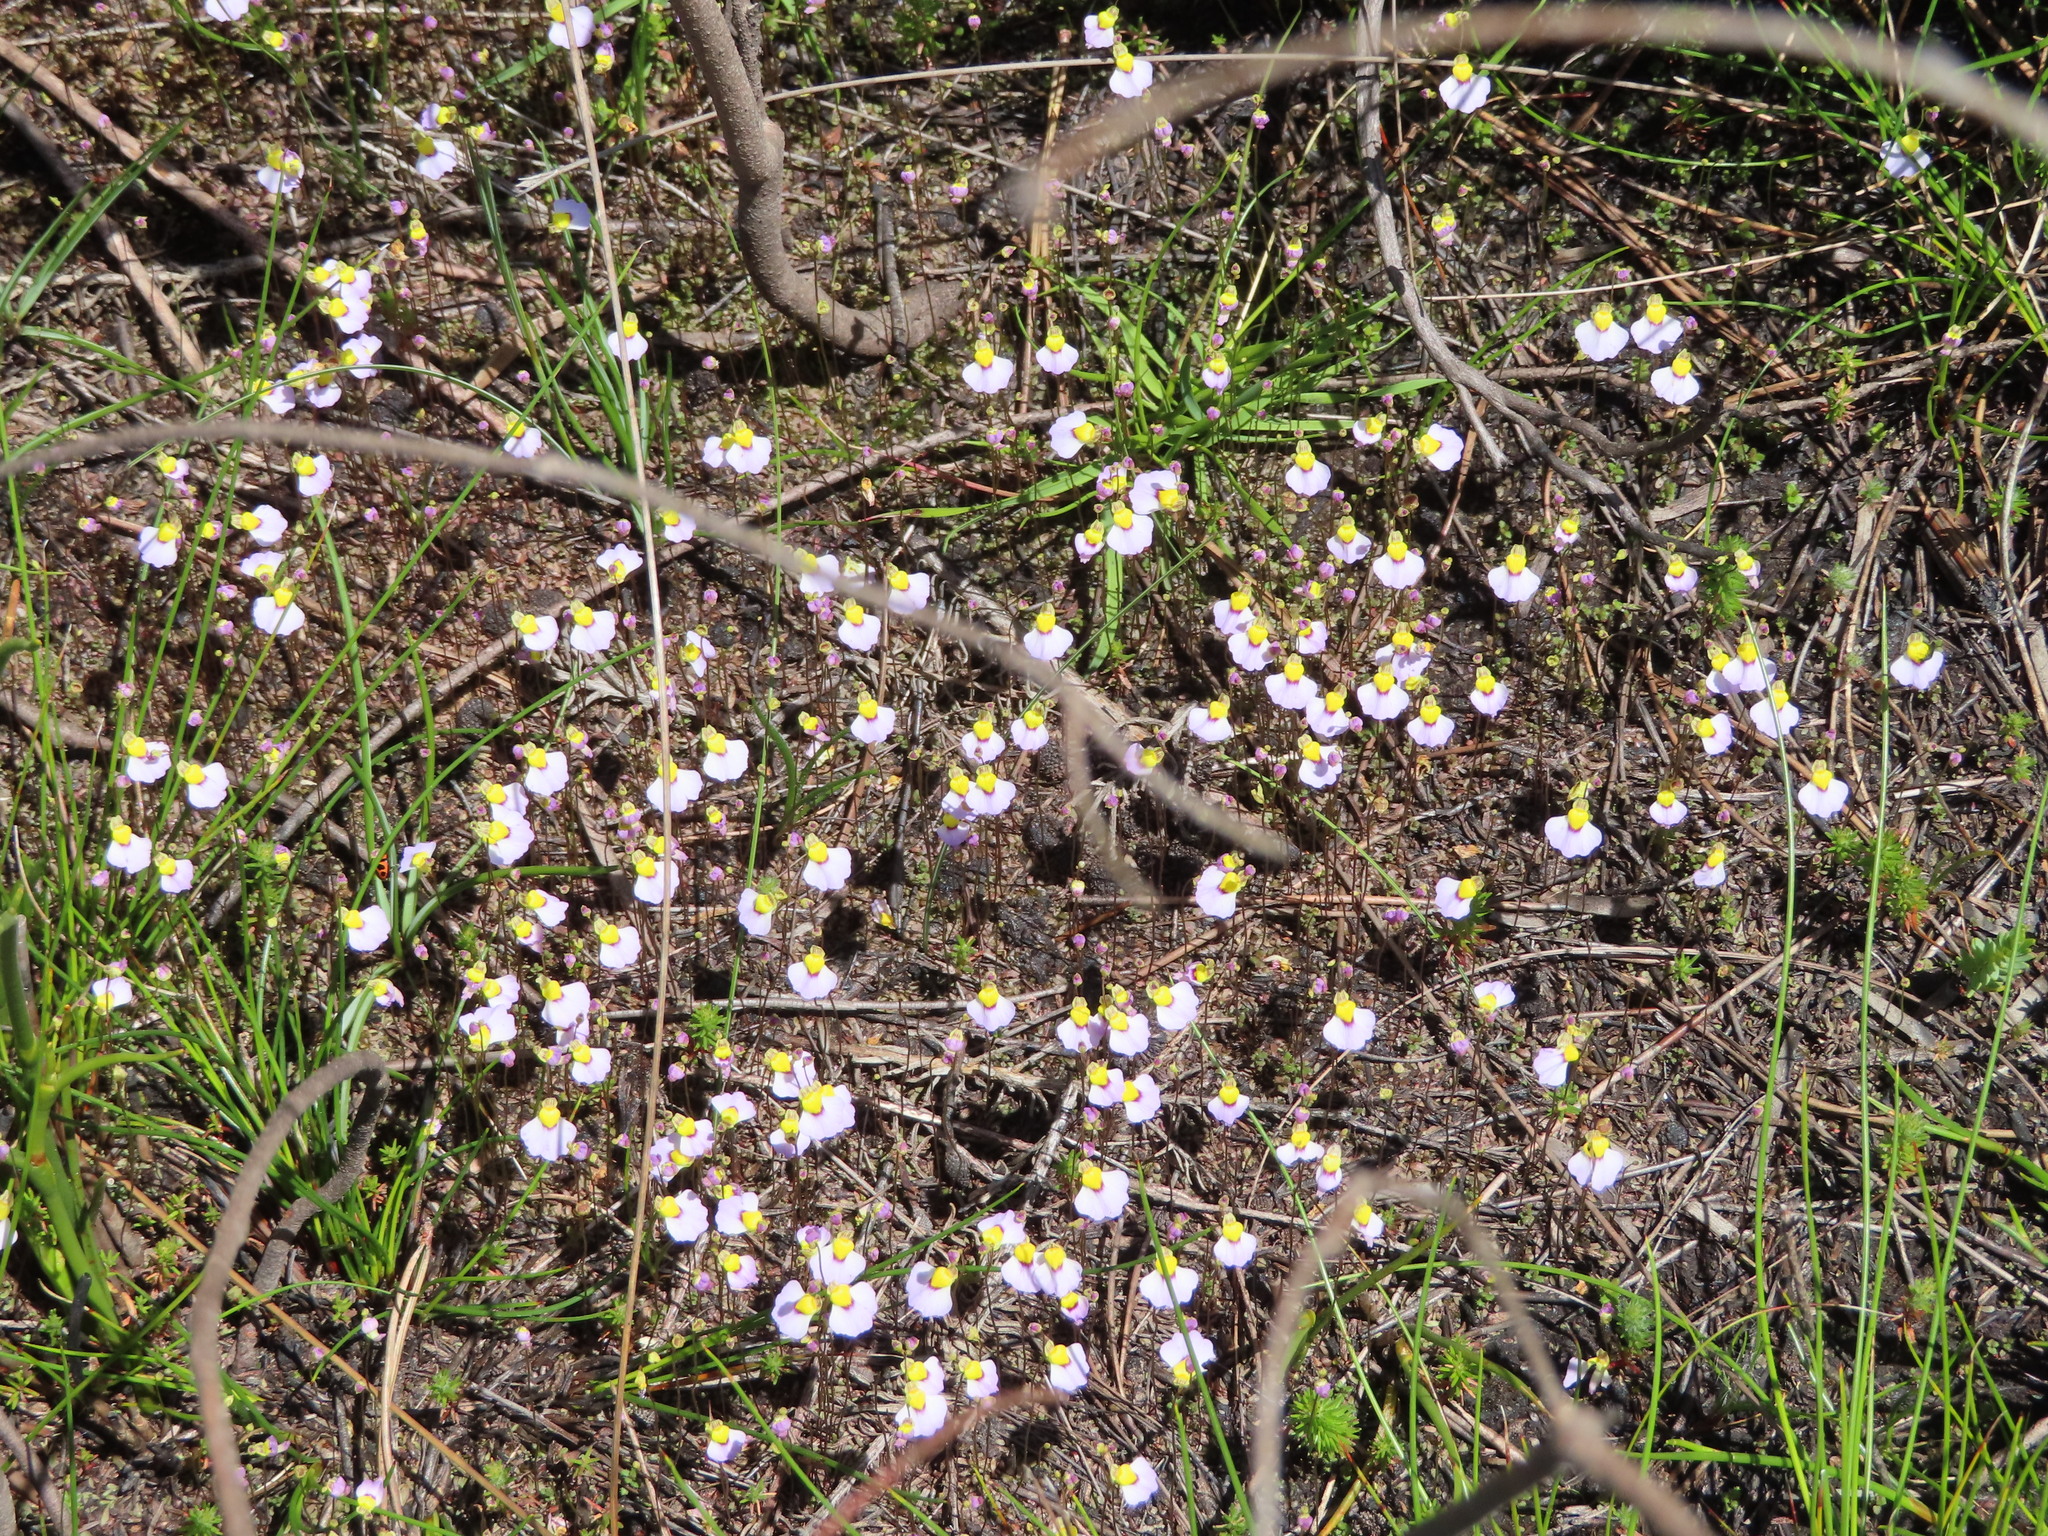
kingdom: Plantae
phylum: Tracheophyta
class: Magnoliopsida
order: Lamiales
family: Lentibulariaceae
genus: Utricularia
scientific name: Utricularia bisquamata
